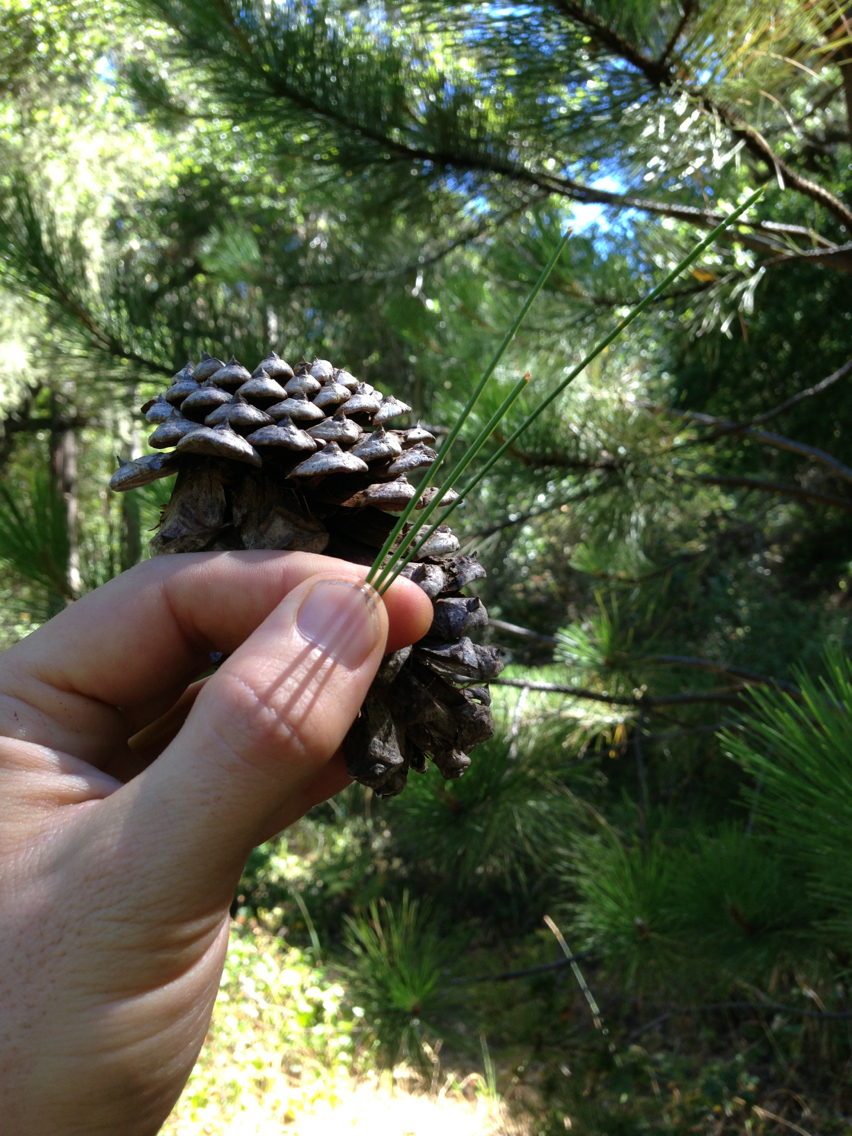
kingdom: Plantae
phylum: Tracheophyta
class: Pinopsida
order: Pinales
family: Pinaceae
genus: Pinus
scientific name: Pinus ponderosa
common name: Western yellow-pine
